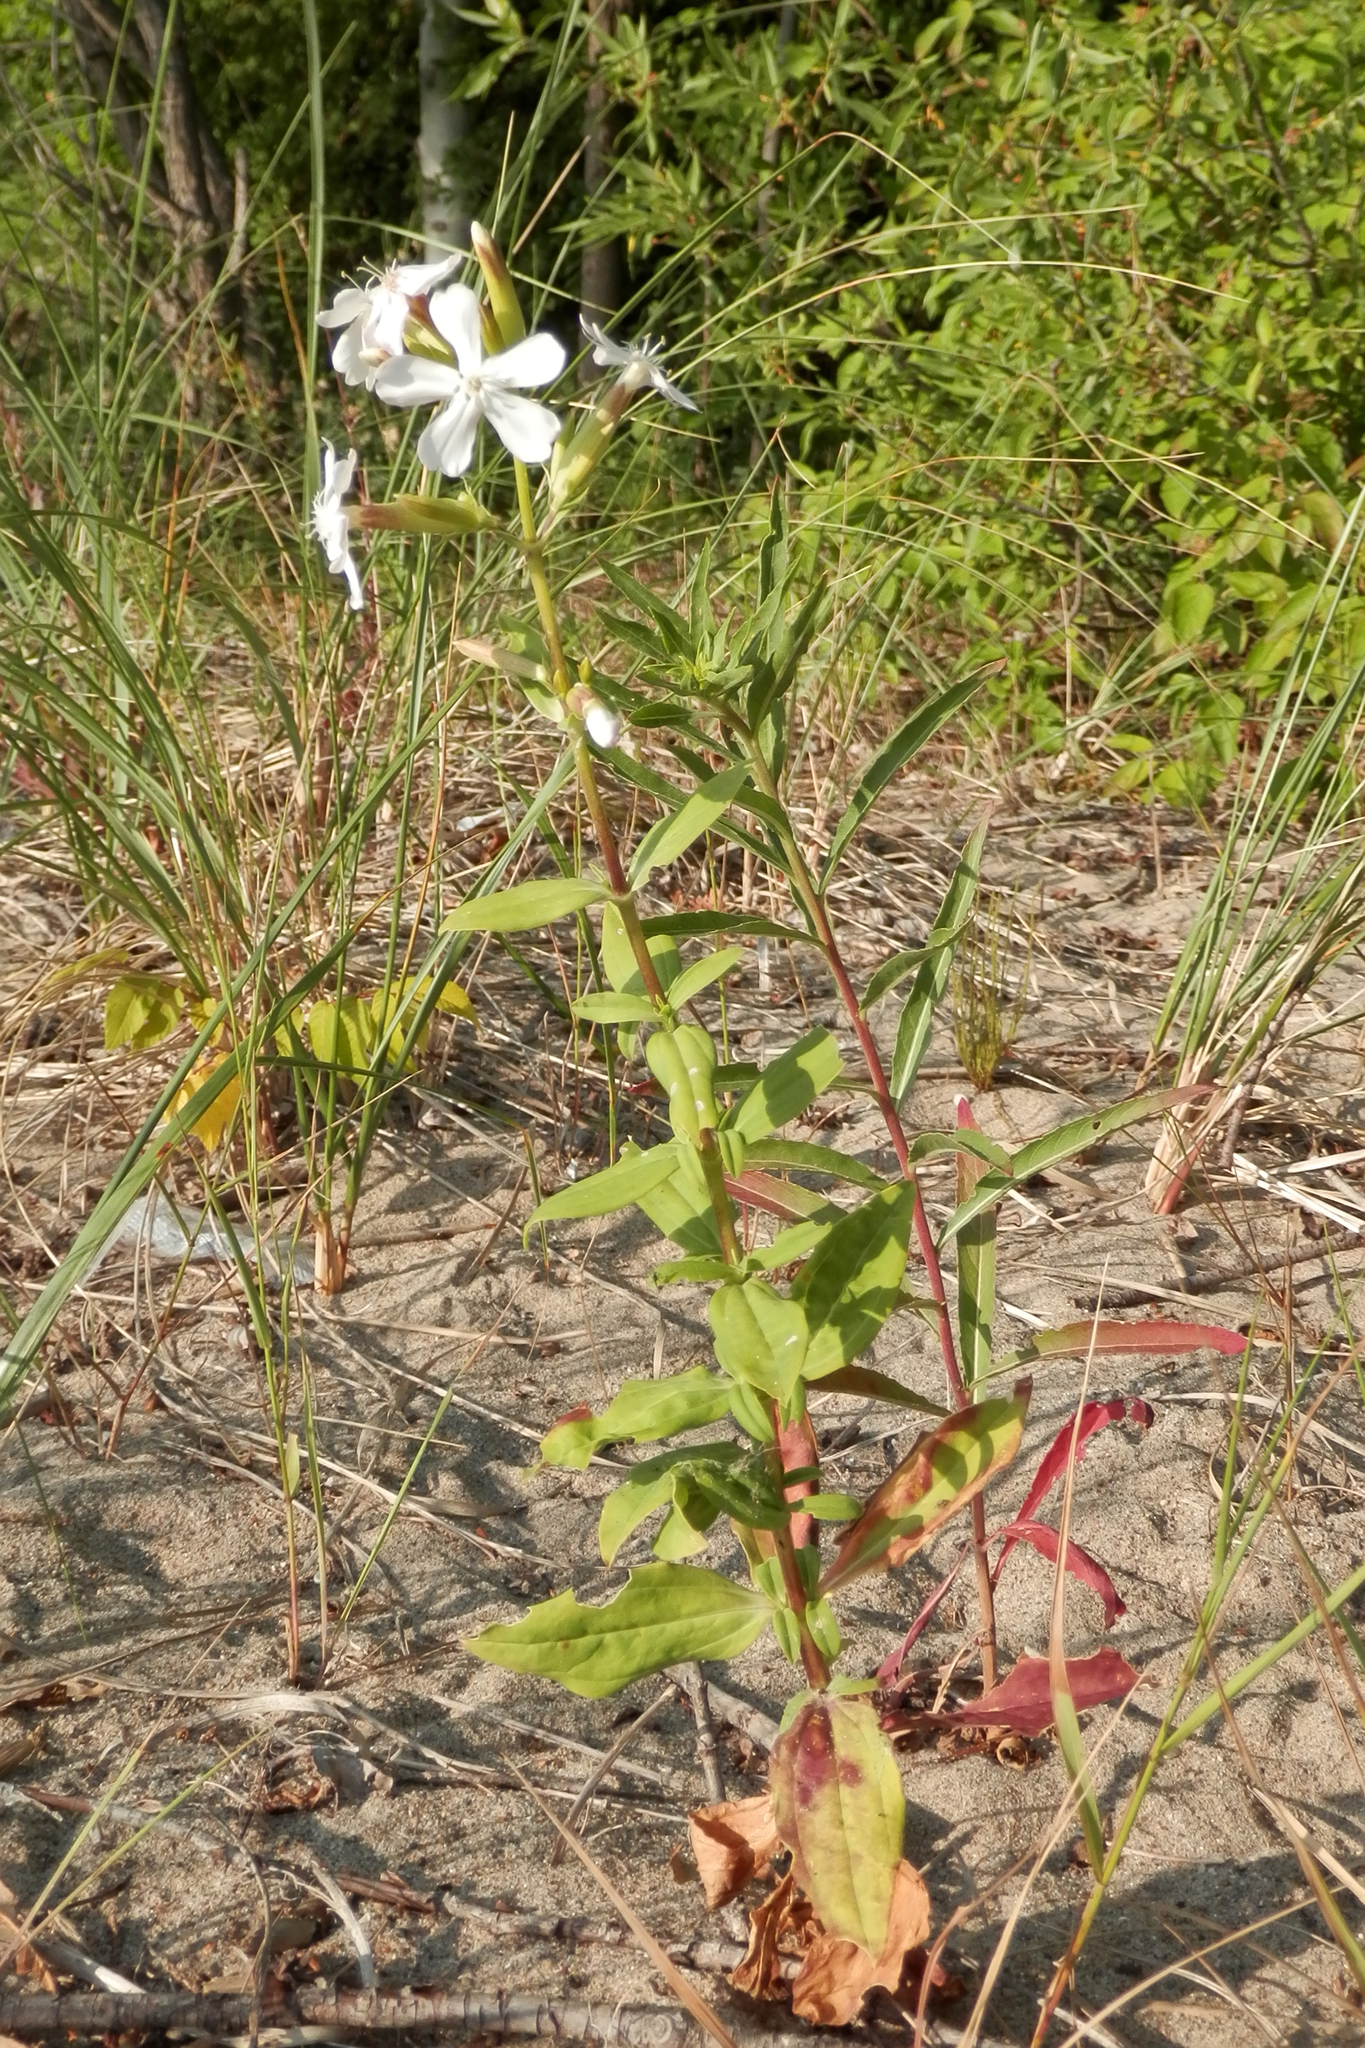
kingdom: Plantae
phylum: Tracheophyta
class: Magnoliopsida
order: Caryophyllales
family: Caryophyllaceae
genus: Saponaria
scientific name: Saponaria officinalis
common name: Soapwort
